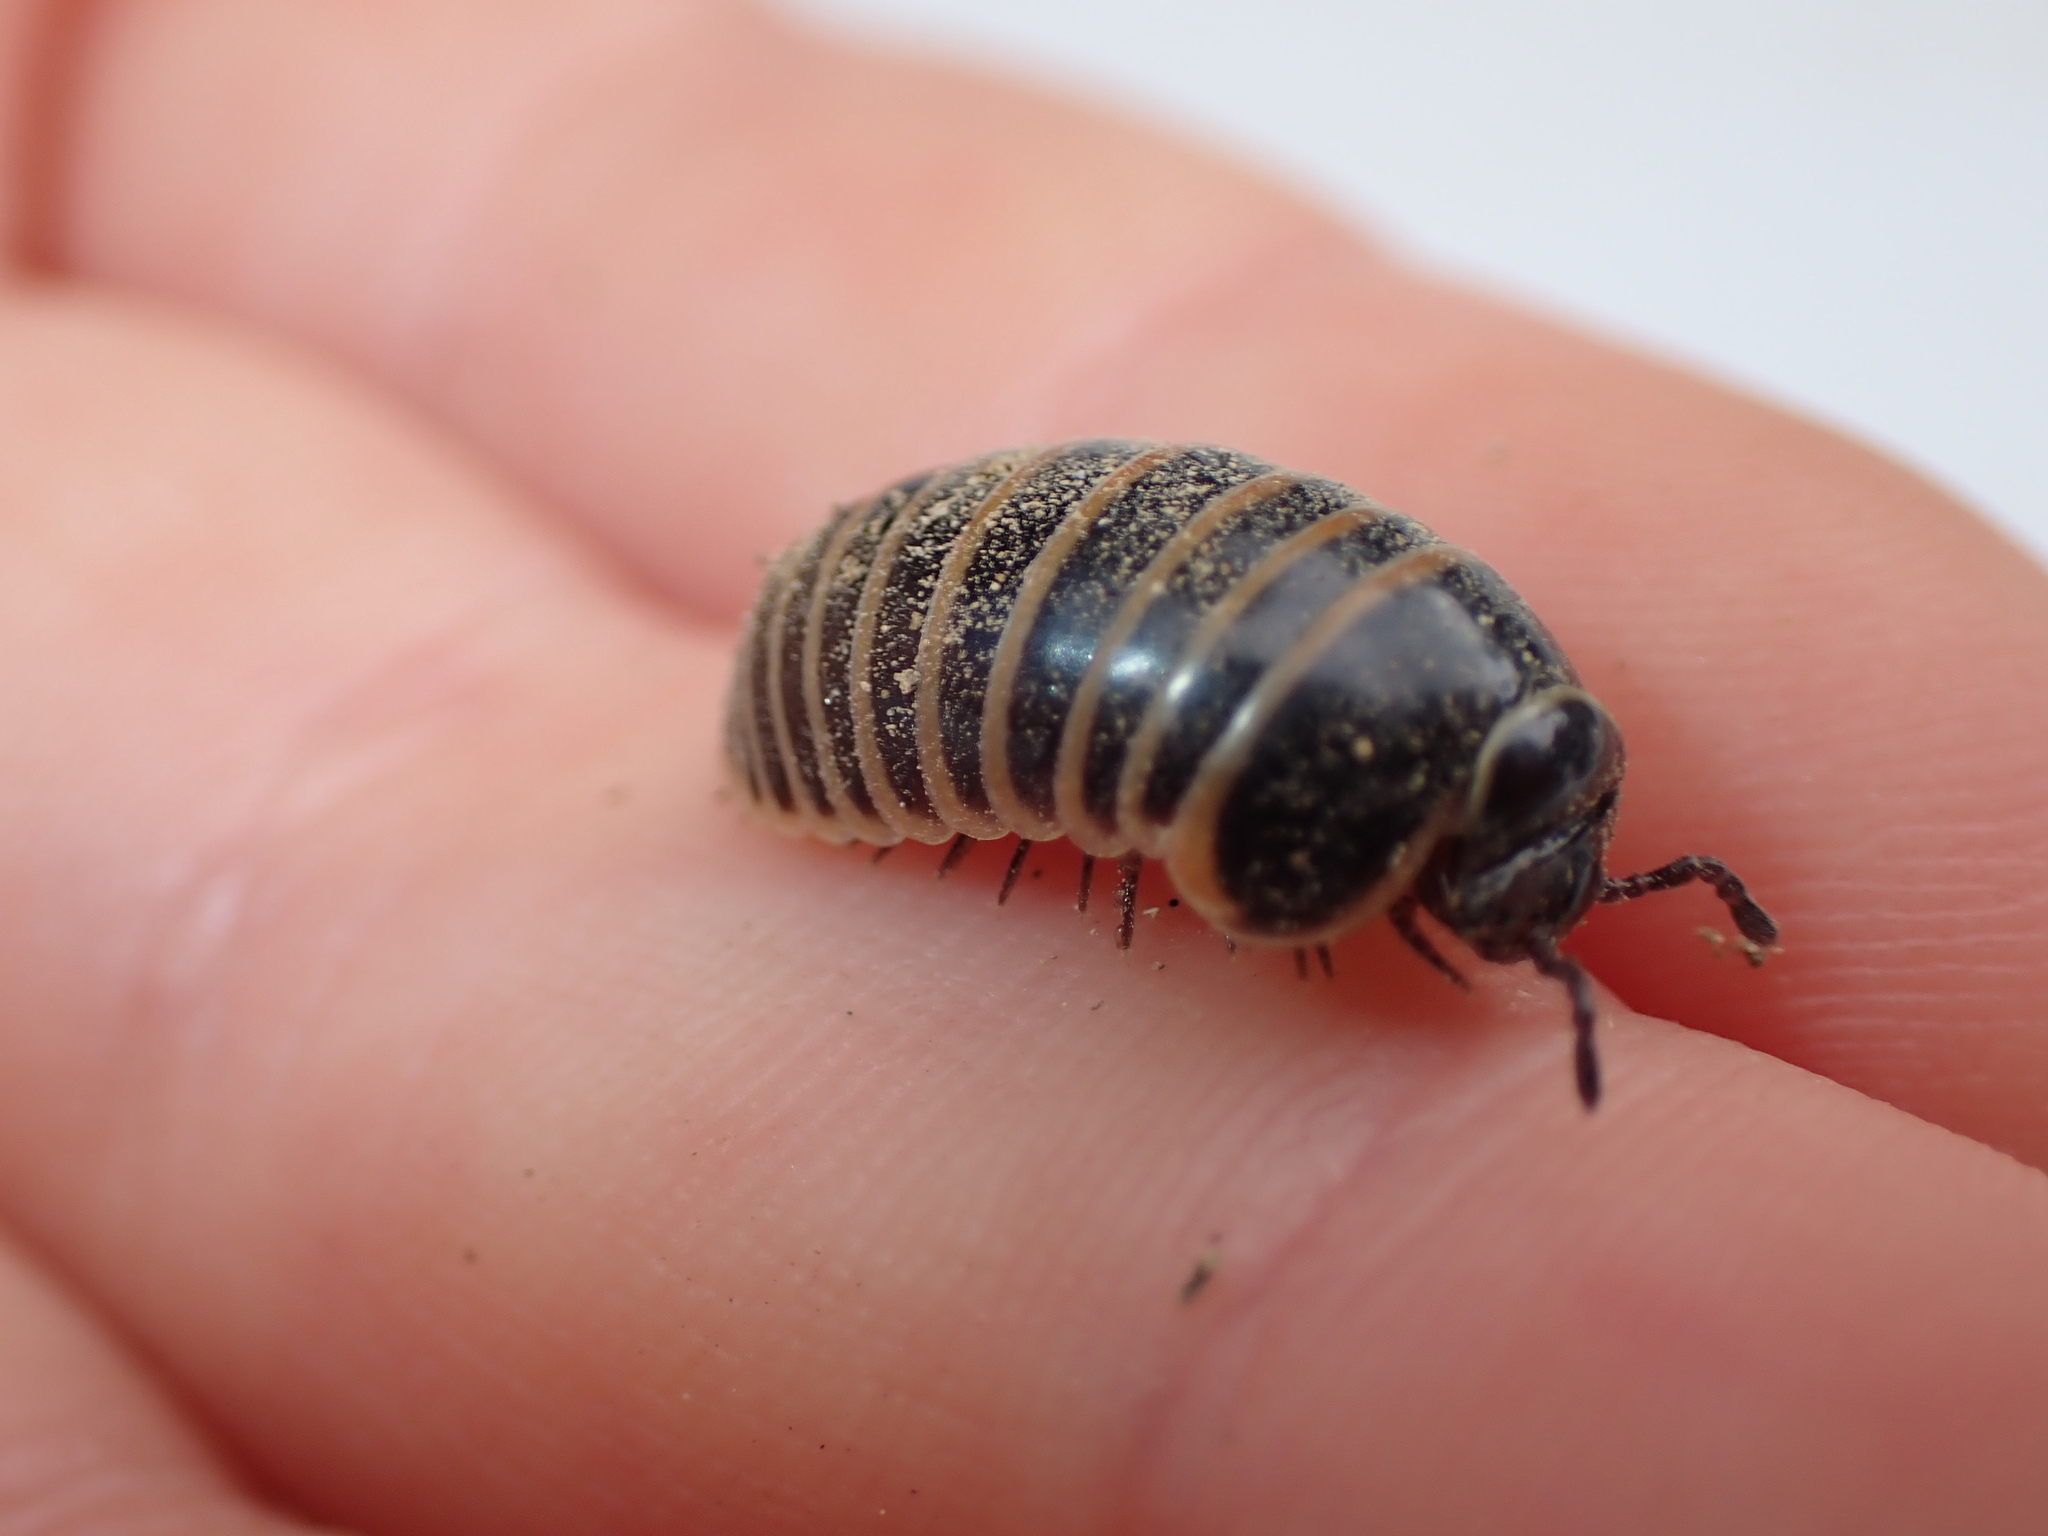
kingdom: Animalia
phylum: Arthropoda
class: Diplopoda
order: Glomerida
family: Glomeridae
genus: Glomeris
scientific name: Glomeris marginata
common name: Bordered pill millipede
